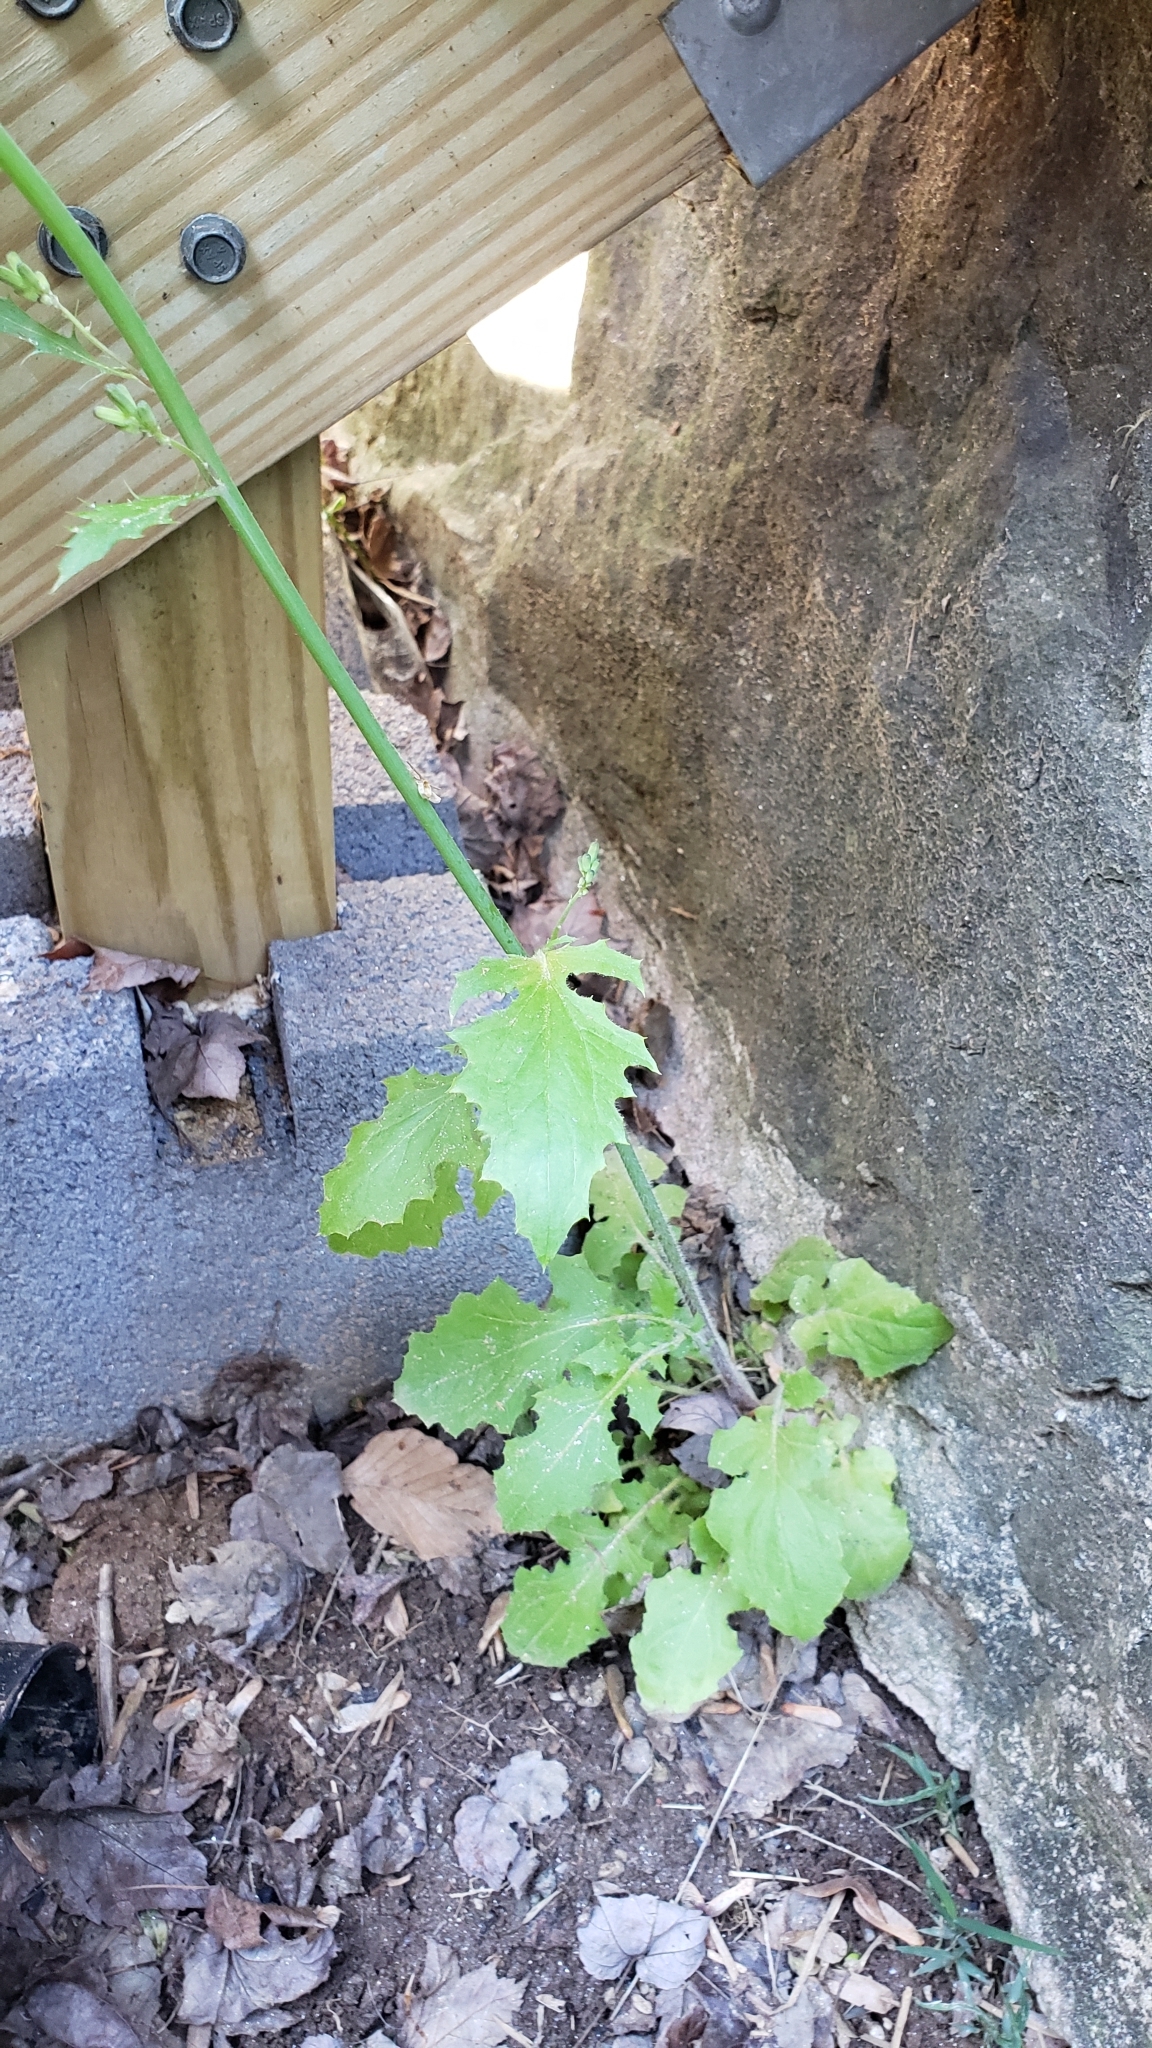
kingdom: Plantae
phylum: Tracheophyta
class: Magnoliopsida
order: Asterales
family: Asteraceae
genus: Youngia
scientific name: Youngia japonica
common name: Oriental false hawksbeard
